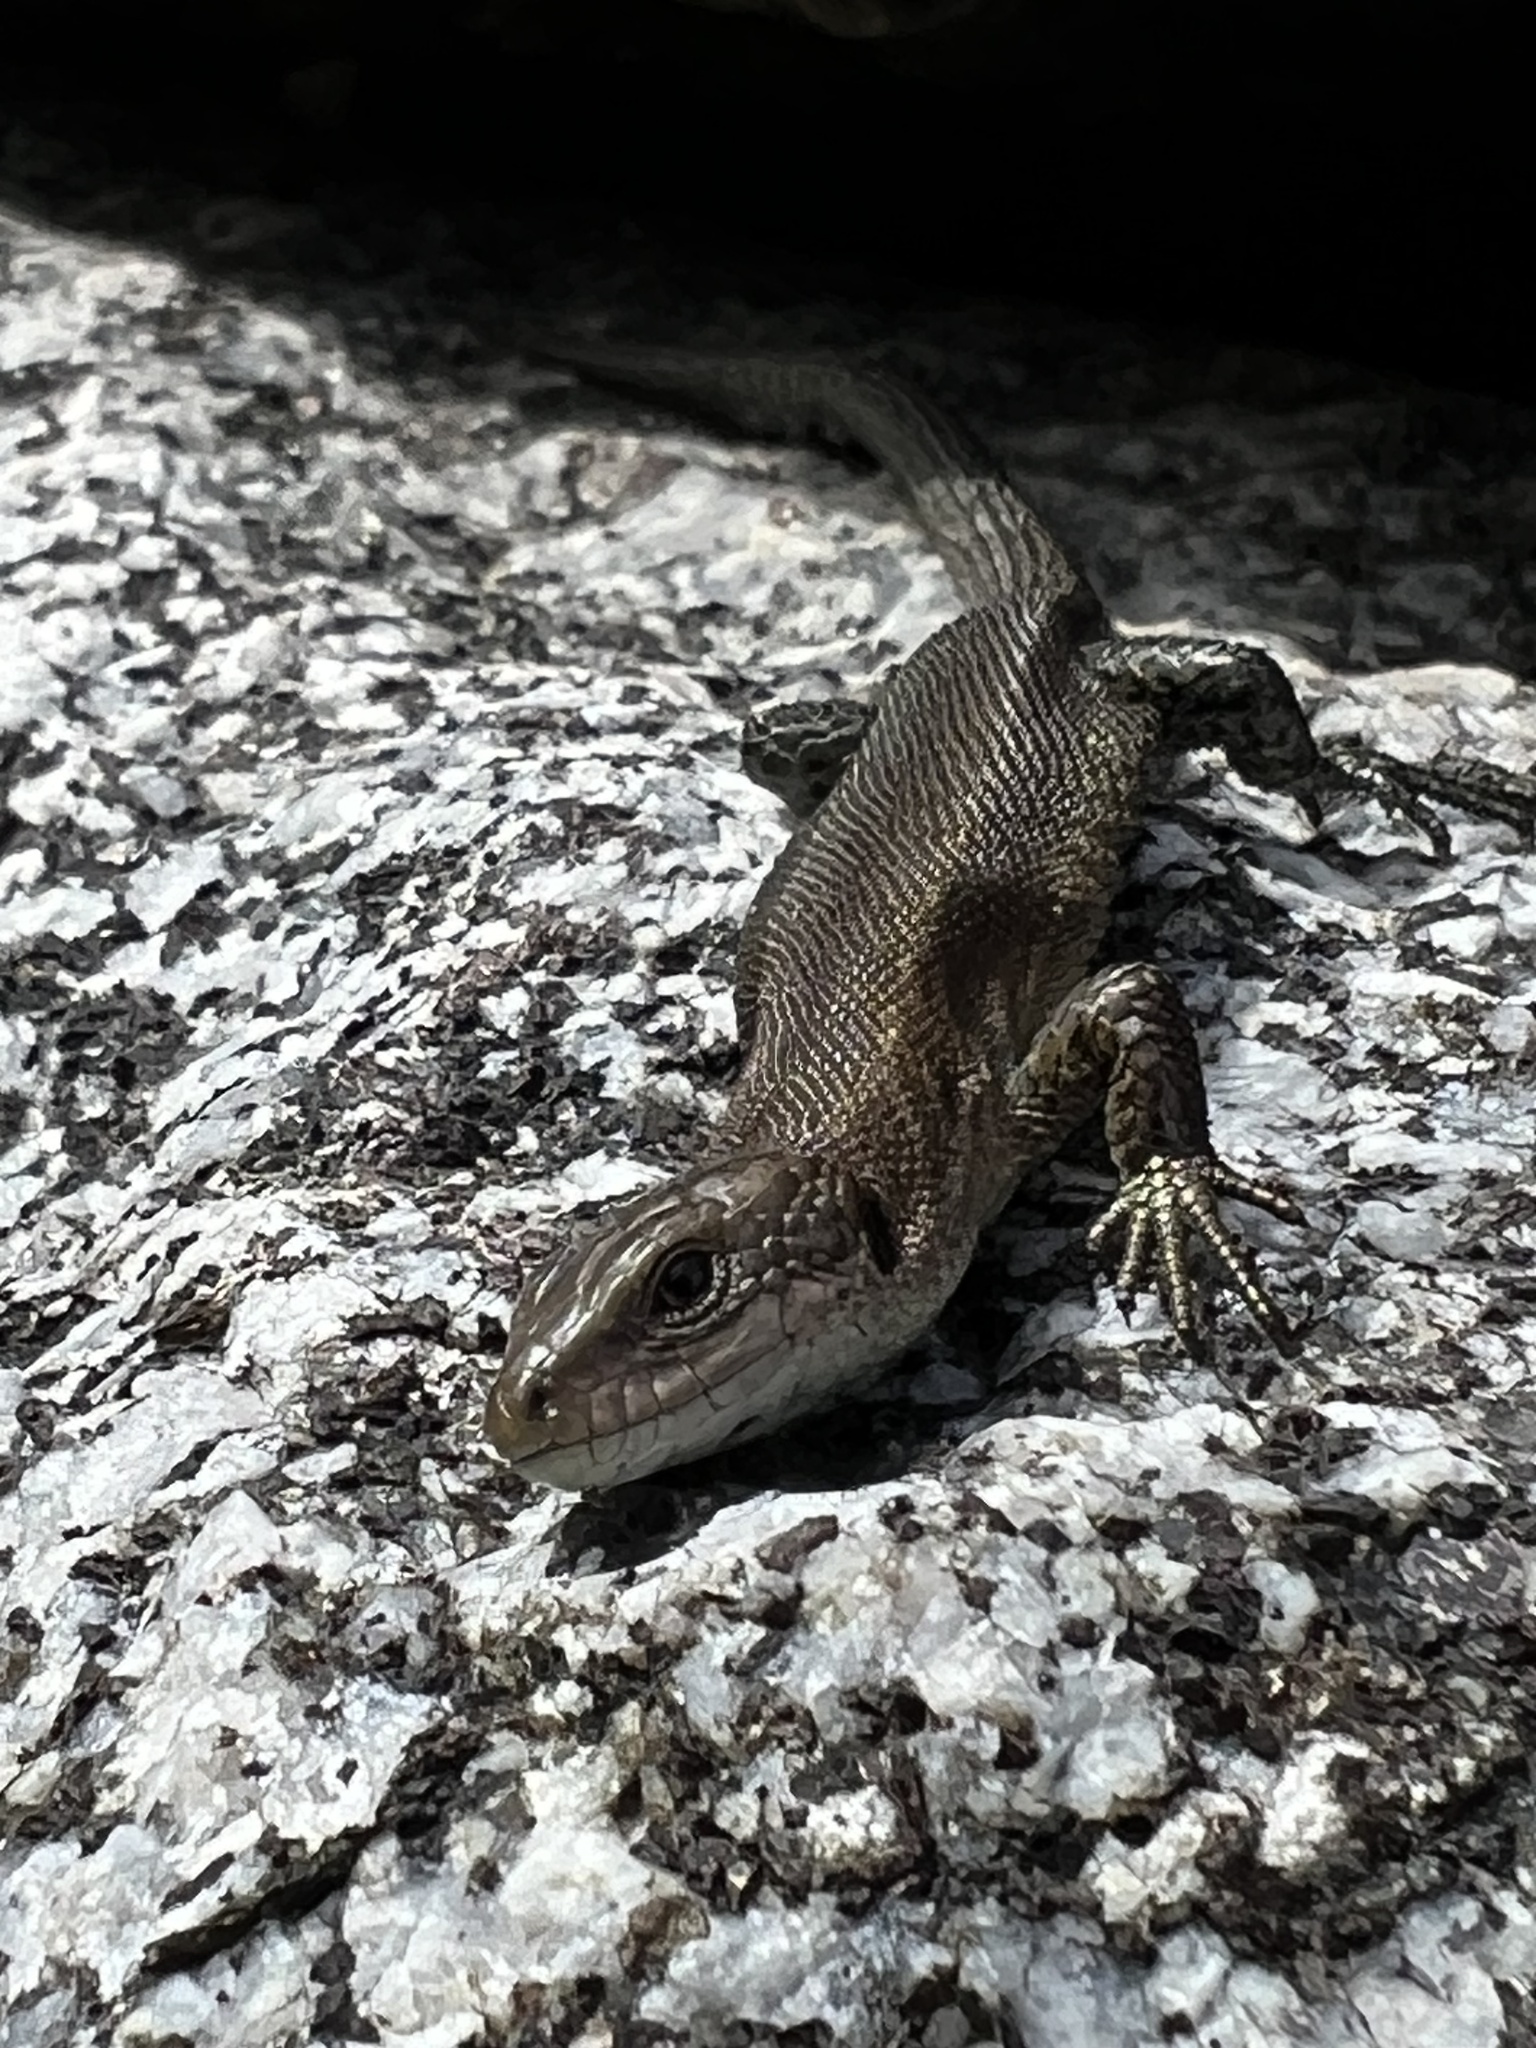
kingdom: Animalia
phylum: Chordata
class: Squamata
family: Lacertidae
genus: Zootoca
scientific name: Zootoca vivipara
